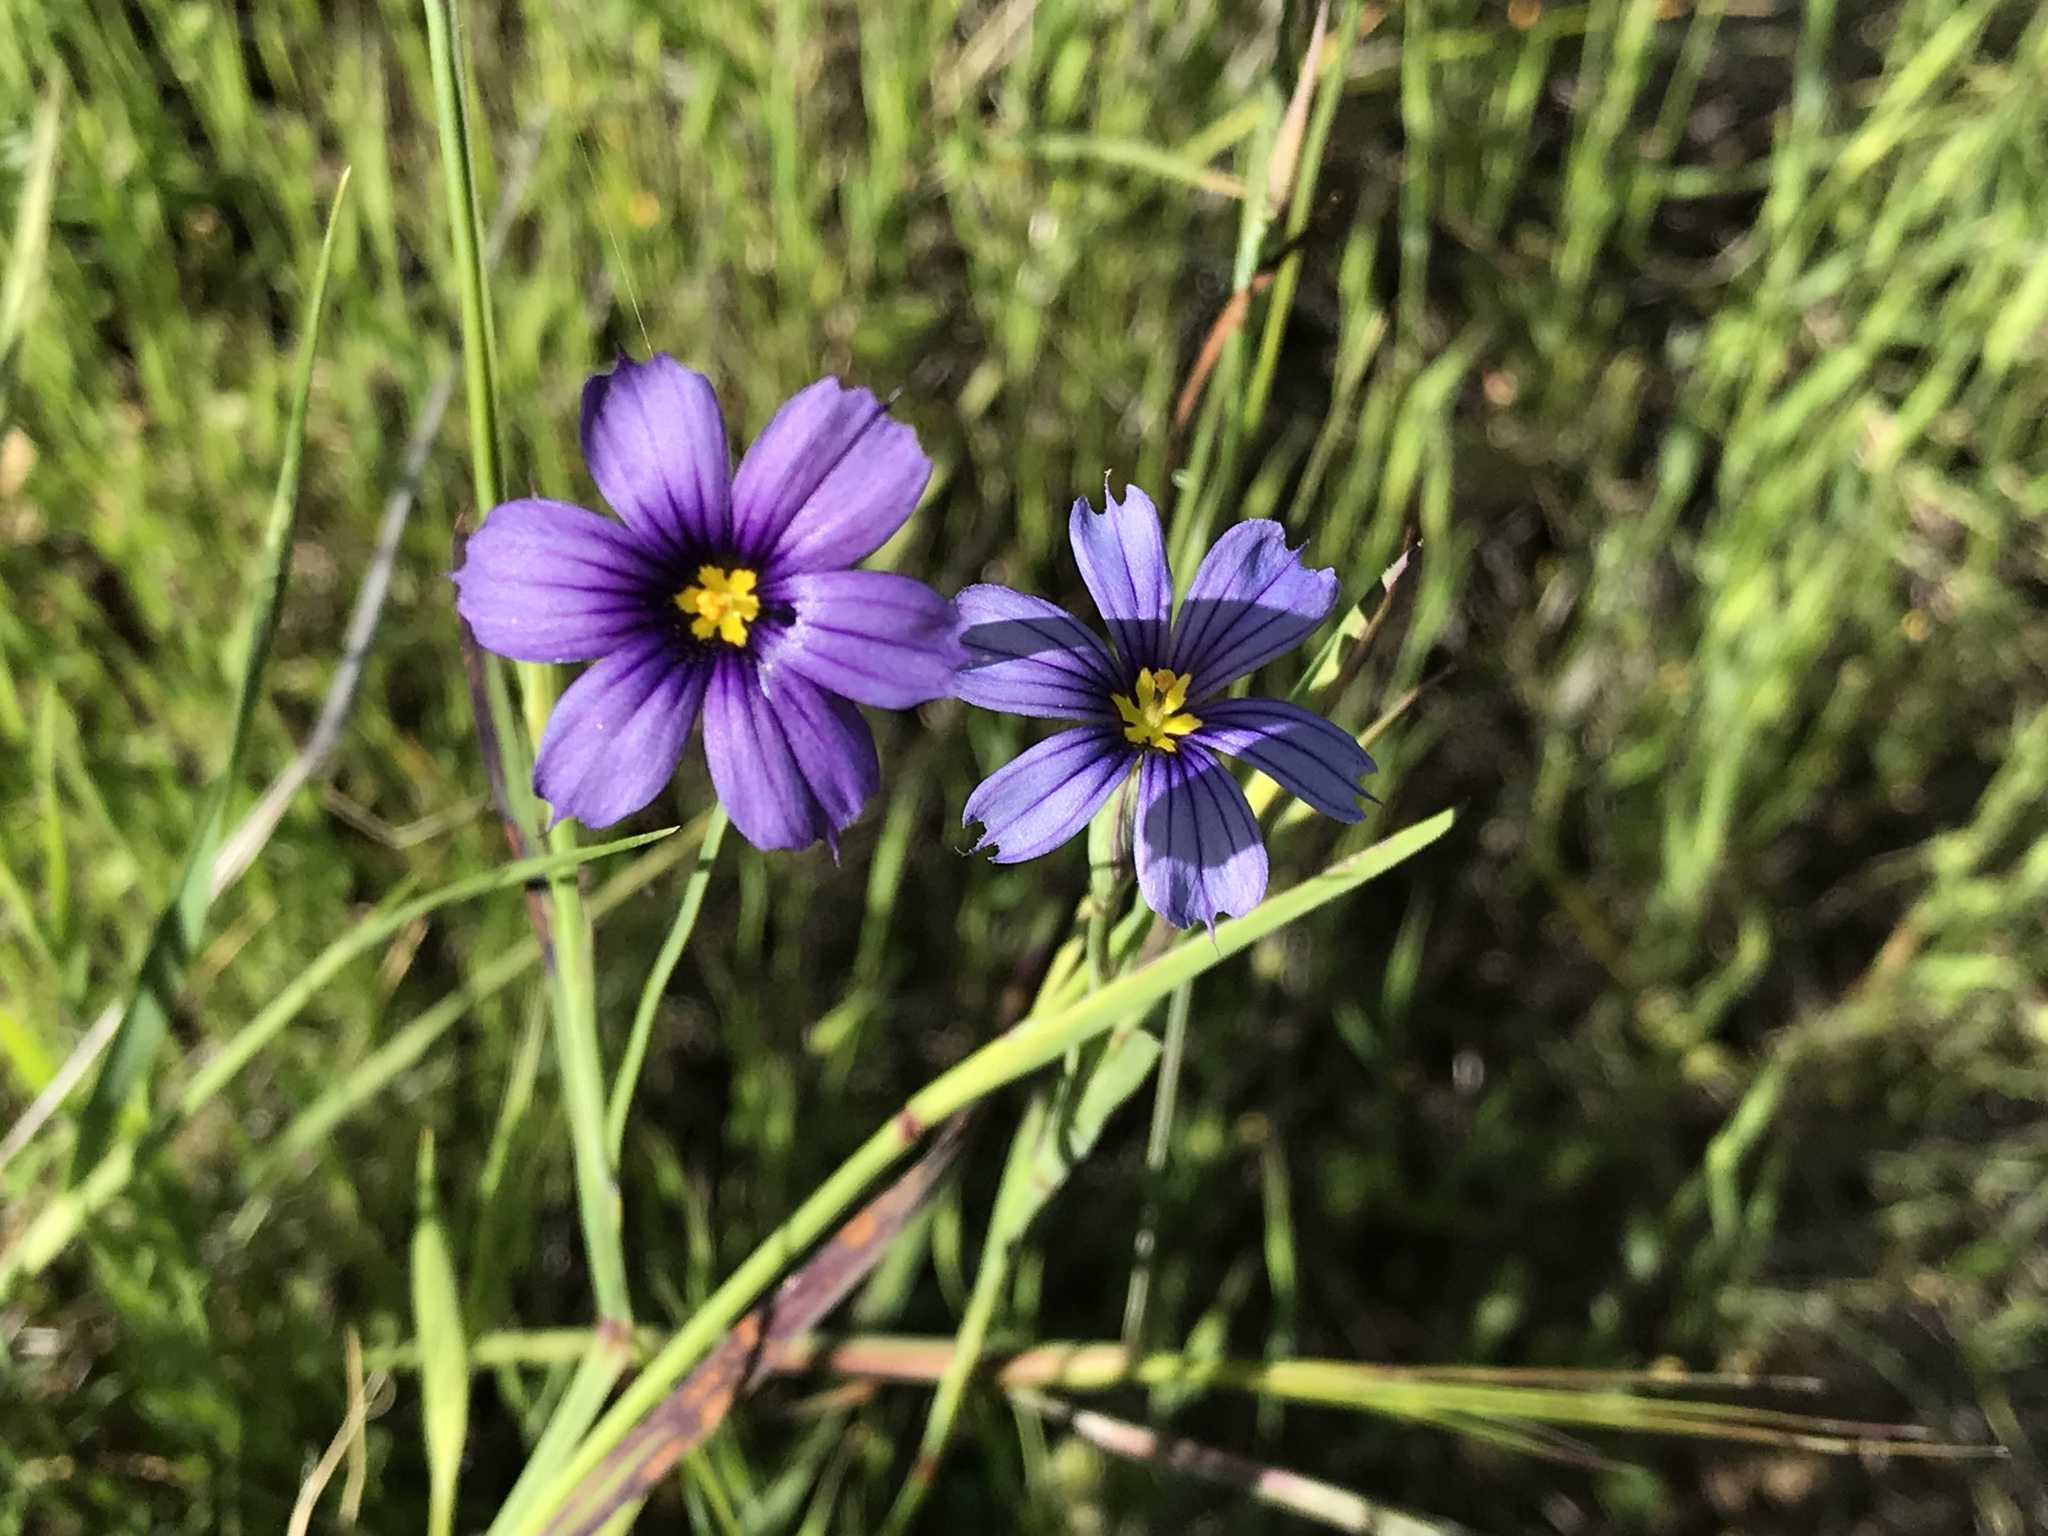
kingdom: Plantae
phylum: Tracheophyta
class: Liliopsida
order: Asparagales
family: Iridaceae
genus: Sisyrinchium
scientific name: Sisyrinchium bellum
